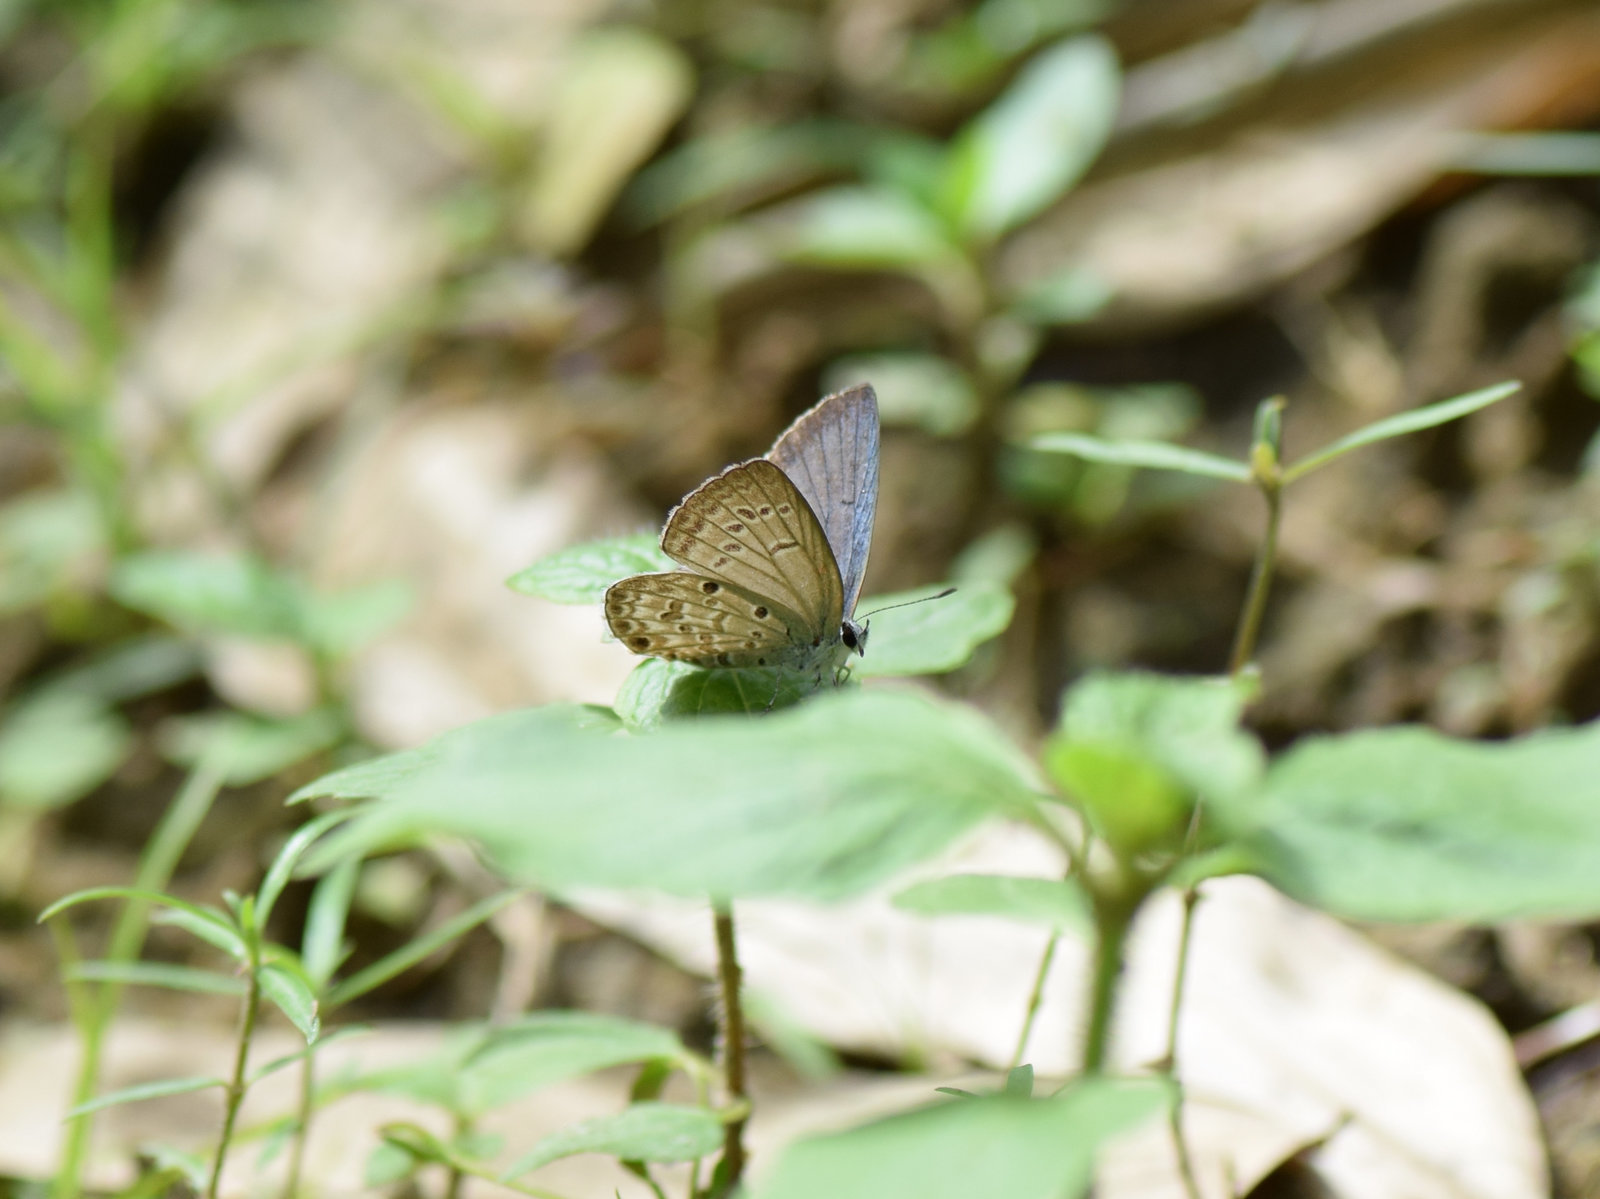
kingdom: Animalia
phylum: Arthropoda
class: Insecta
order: Lepidoptera
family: Lycaenidae
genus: Chilades
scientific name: Chilades laius
